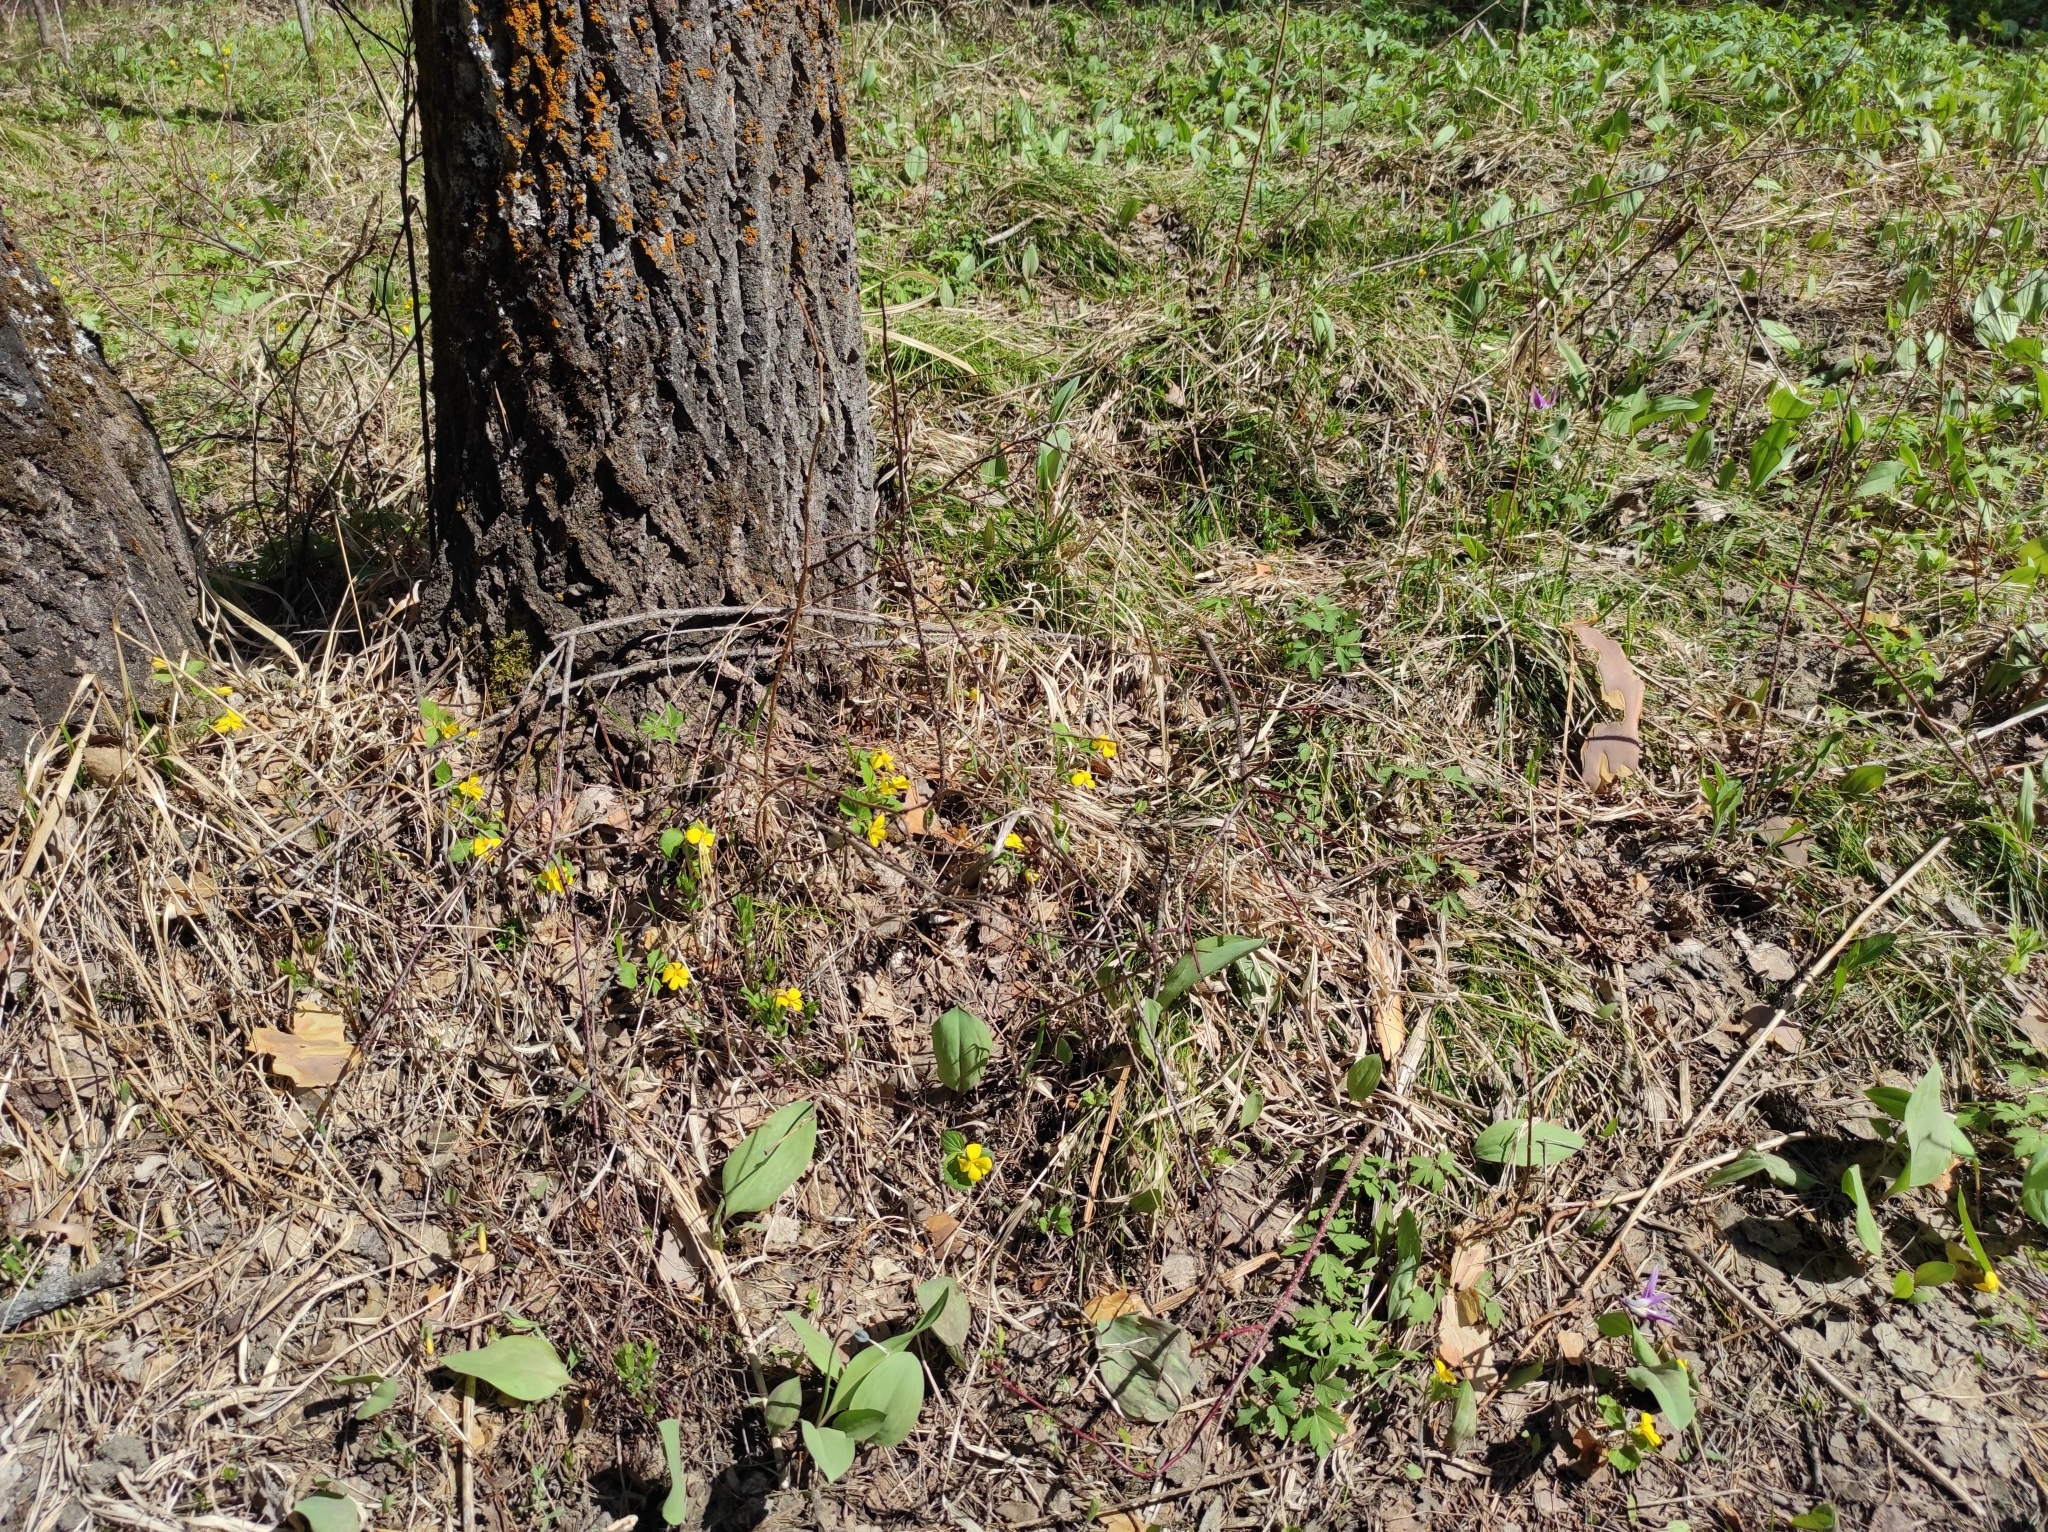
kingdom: Plantae
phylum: Tracheophyta
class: Magnoliopsida
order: Malpighiales
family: Violaceae
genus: Viola
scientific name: Viola uniflora
